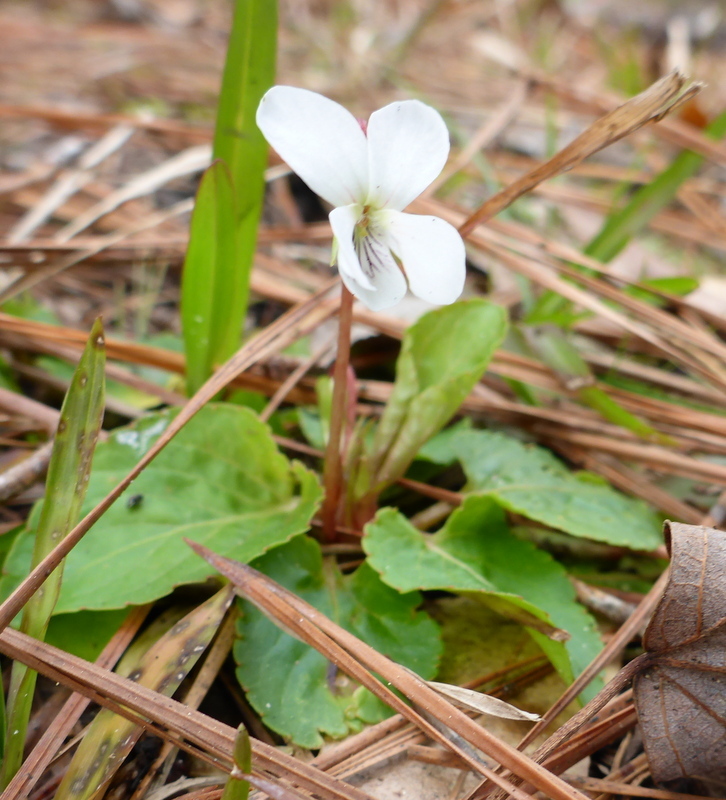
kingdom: Plantae
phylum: Tracheophyta
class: Magnoliopsida
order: Malpighiales
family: Violaceae
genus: Viola
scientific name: Viola primulifolia
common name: Primrose-leaf violet
